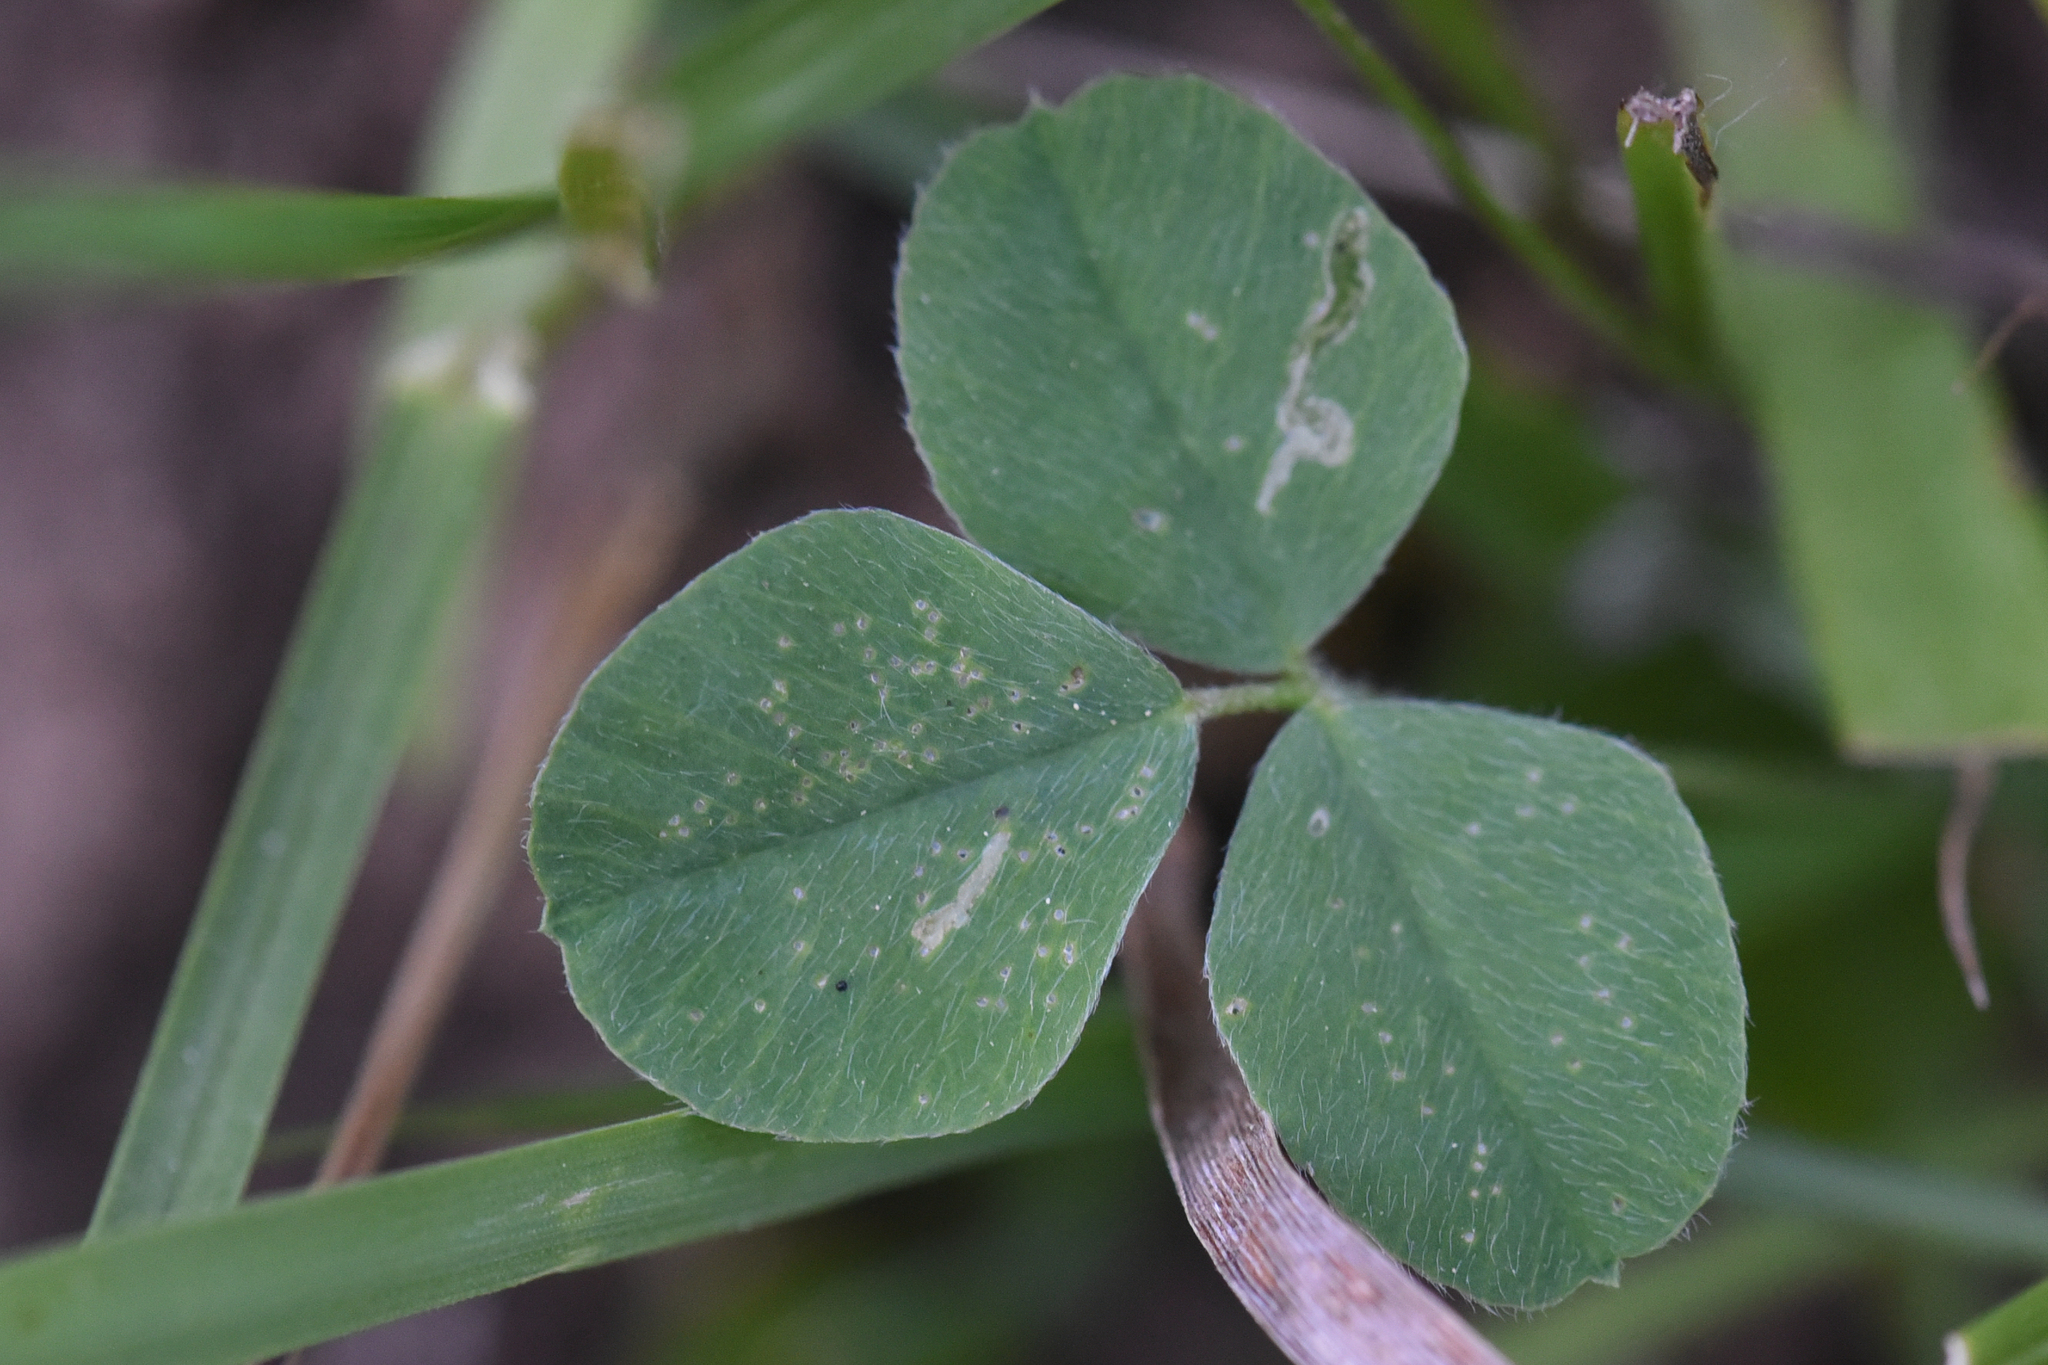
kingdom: Plantae
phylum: Tracheophyta
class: Magnoliopsida
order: Fabales
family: Fabaceae
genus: Medicago
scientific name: Medicago lupulina
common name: Black medick
